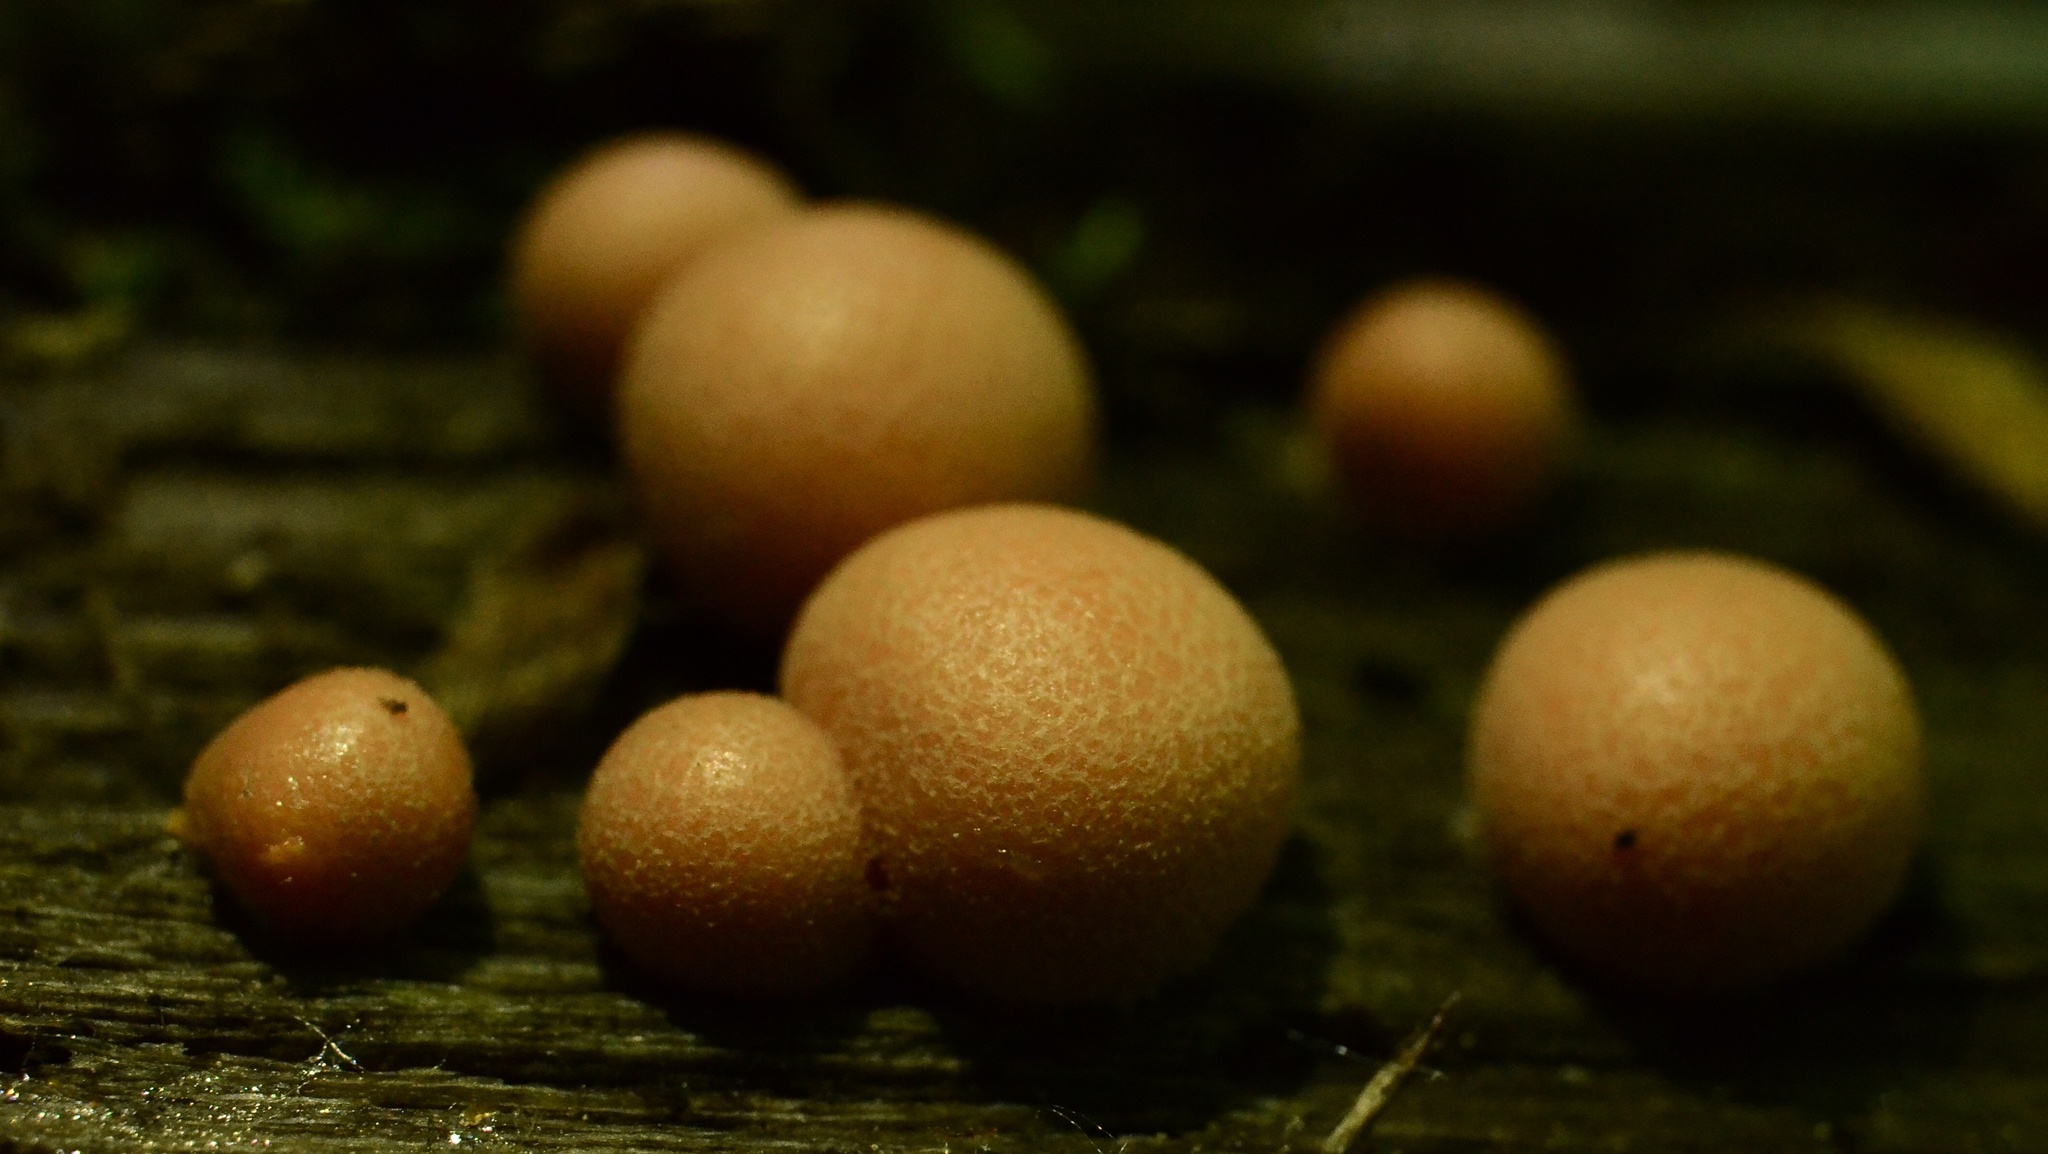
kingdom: Protozoa
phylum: Mycetozoa
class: Myxomycetes
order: Cribrariales
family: Tubiferaceae
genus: Lycogala
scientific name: Lycogala epidendrum
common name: Wolf's milk
